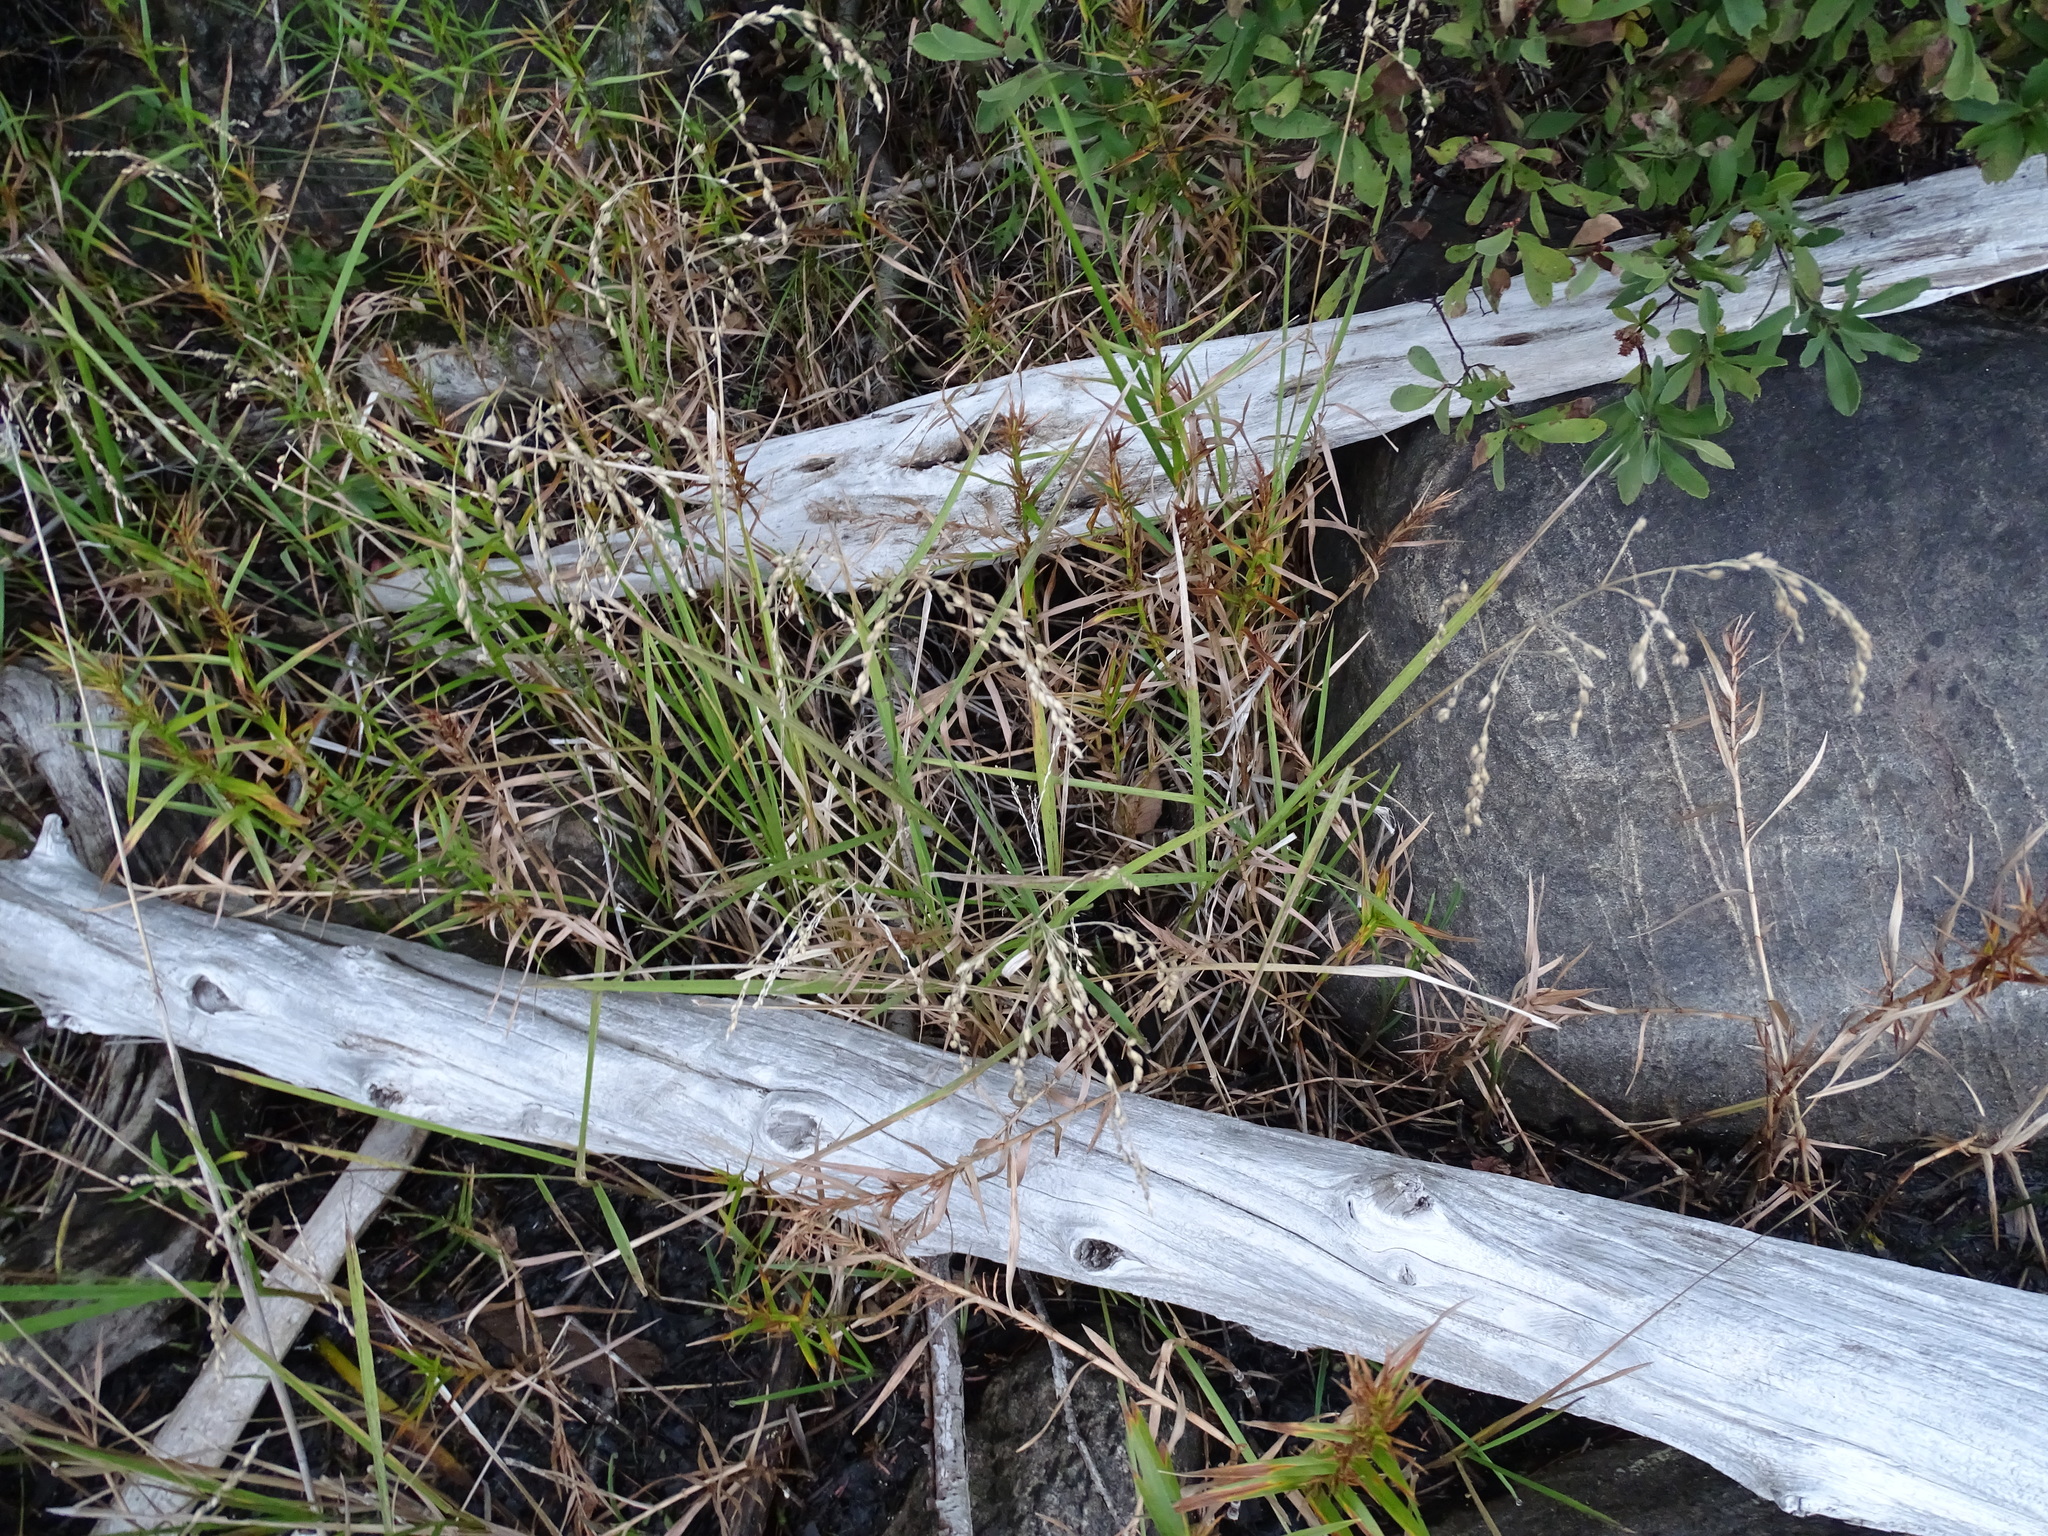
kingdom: Plantae
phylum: Tracheophyta
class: Liliopsida
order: Poales
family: Poaceae
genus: Glyceria
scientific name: Glyceria canadensis
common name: Canada mannagrass
